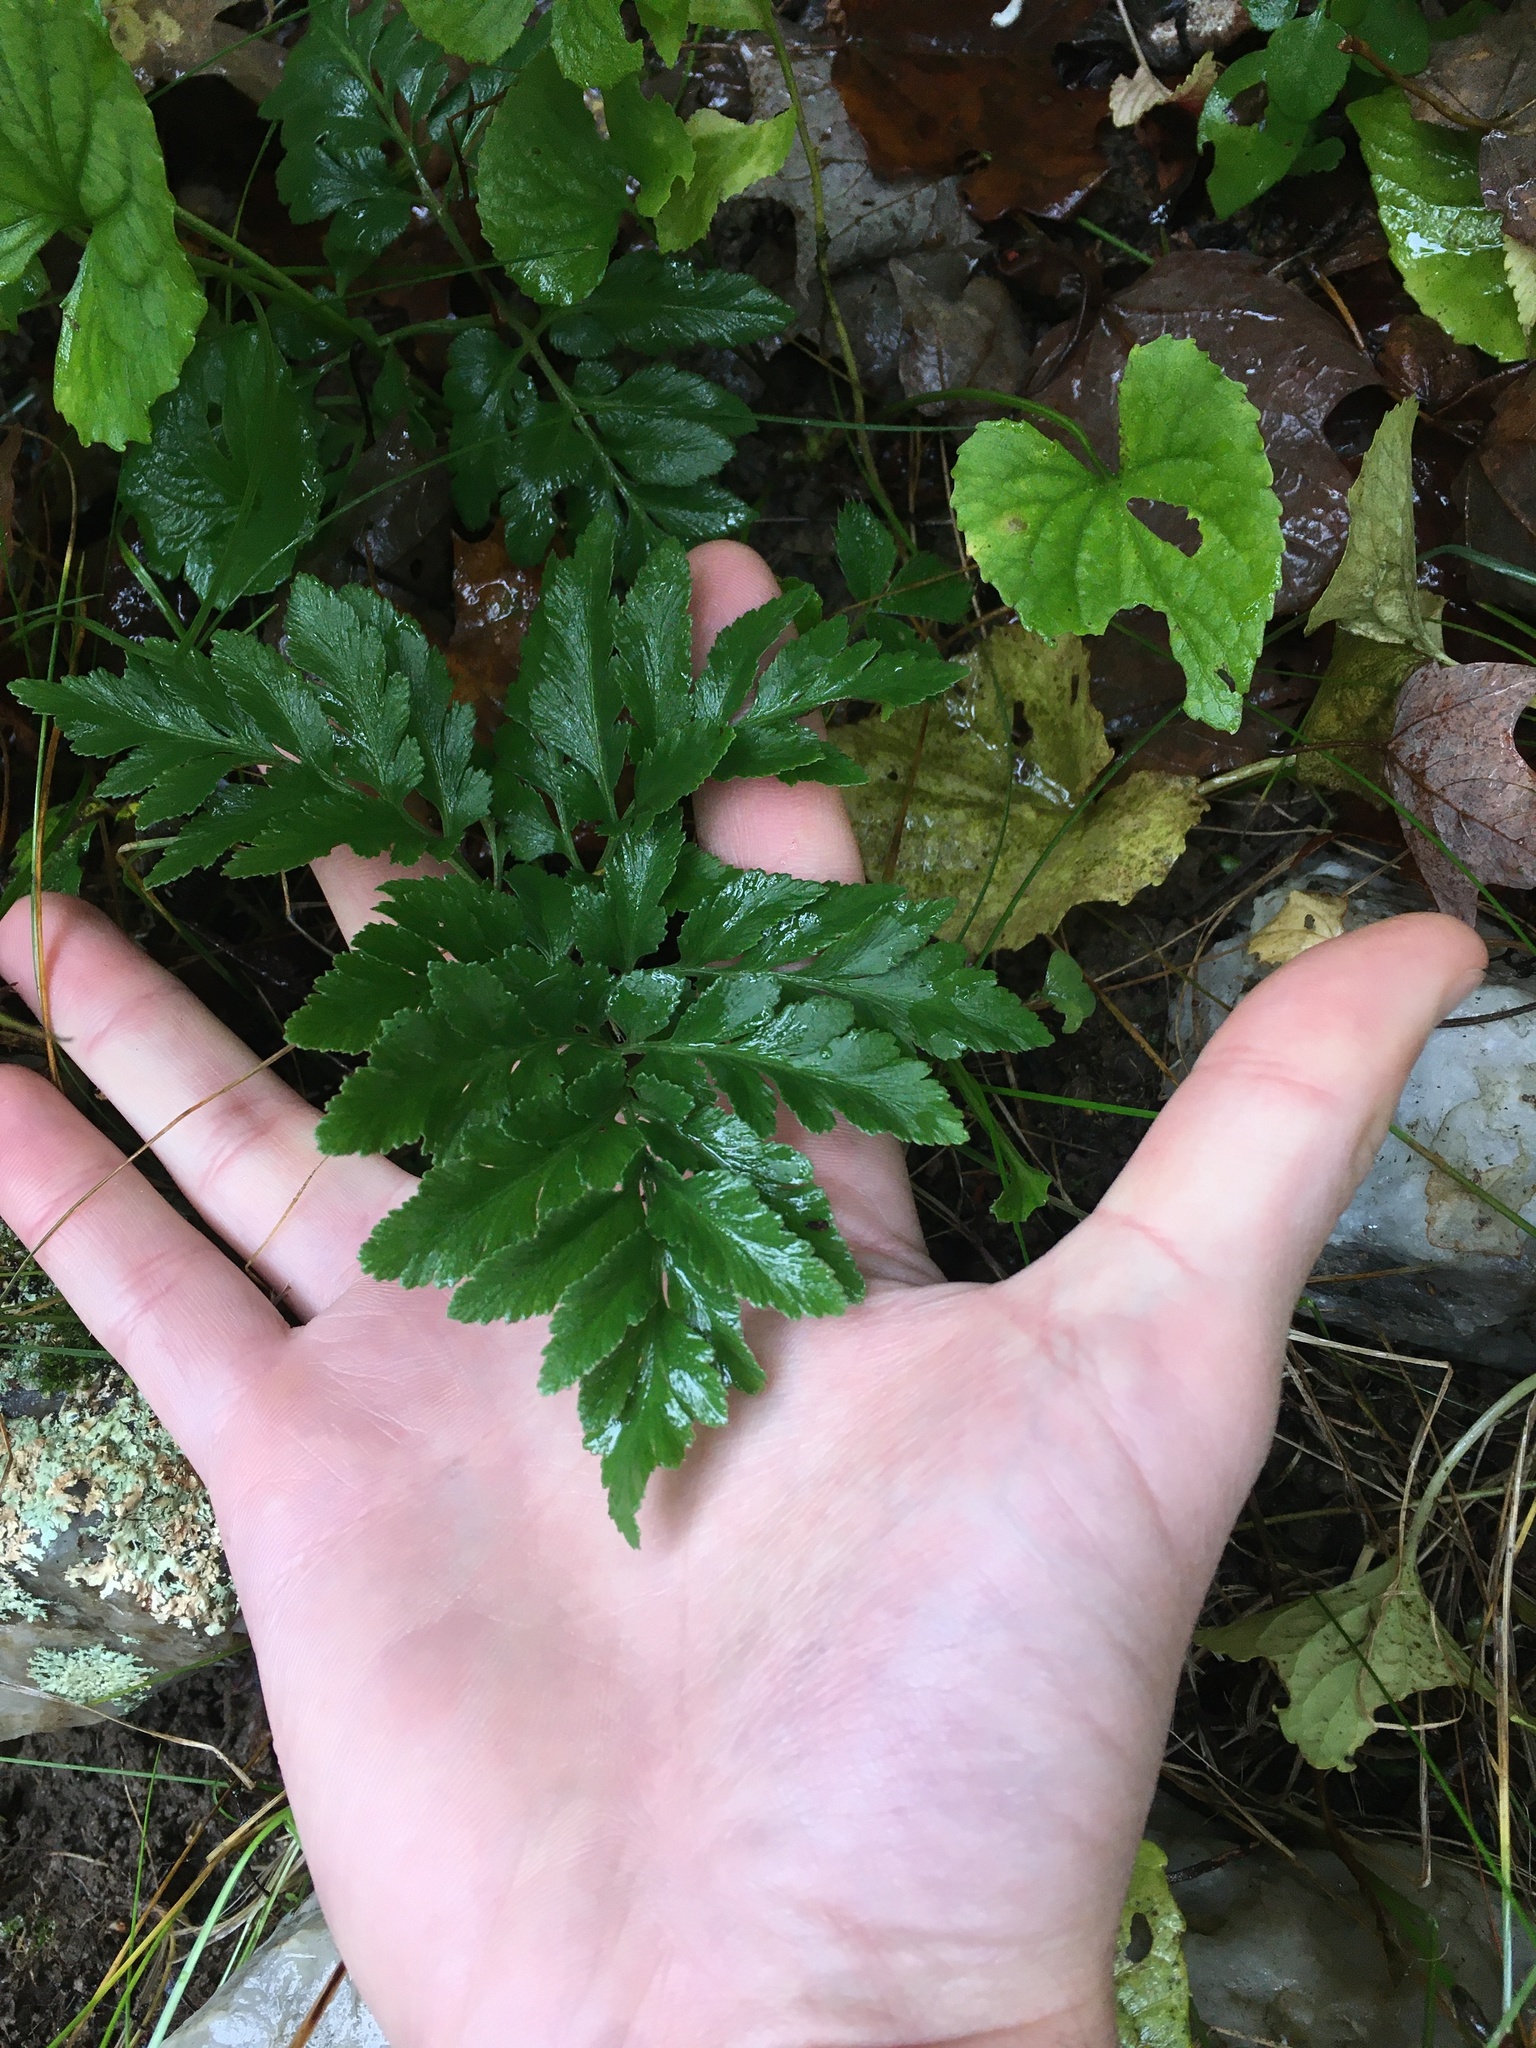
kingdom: Plantae
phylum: Tracheophyta
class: Polypodiopsida
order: Ophioglossales
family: Ophioglossaceae
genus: Sceptridium
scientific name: Sceptridium dissectum
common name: Cut-leaved grapefern
